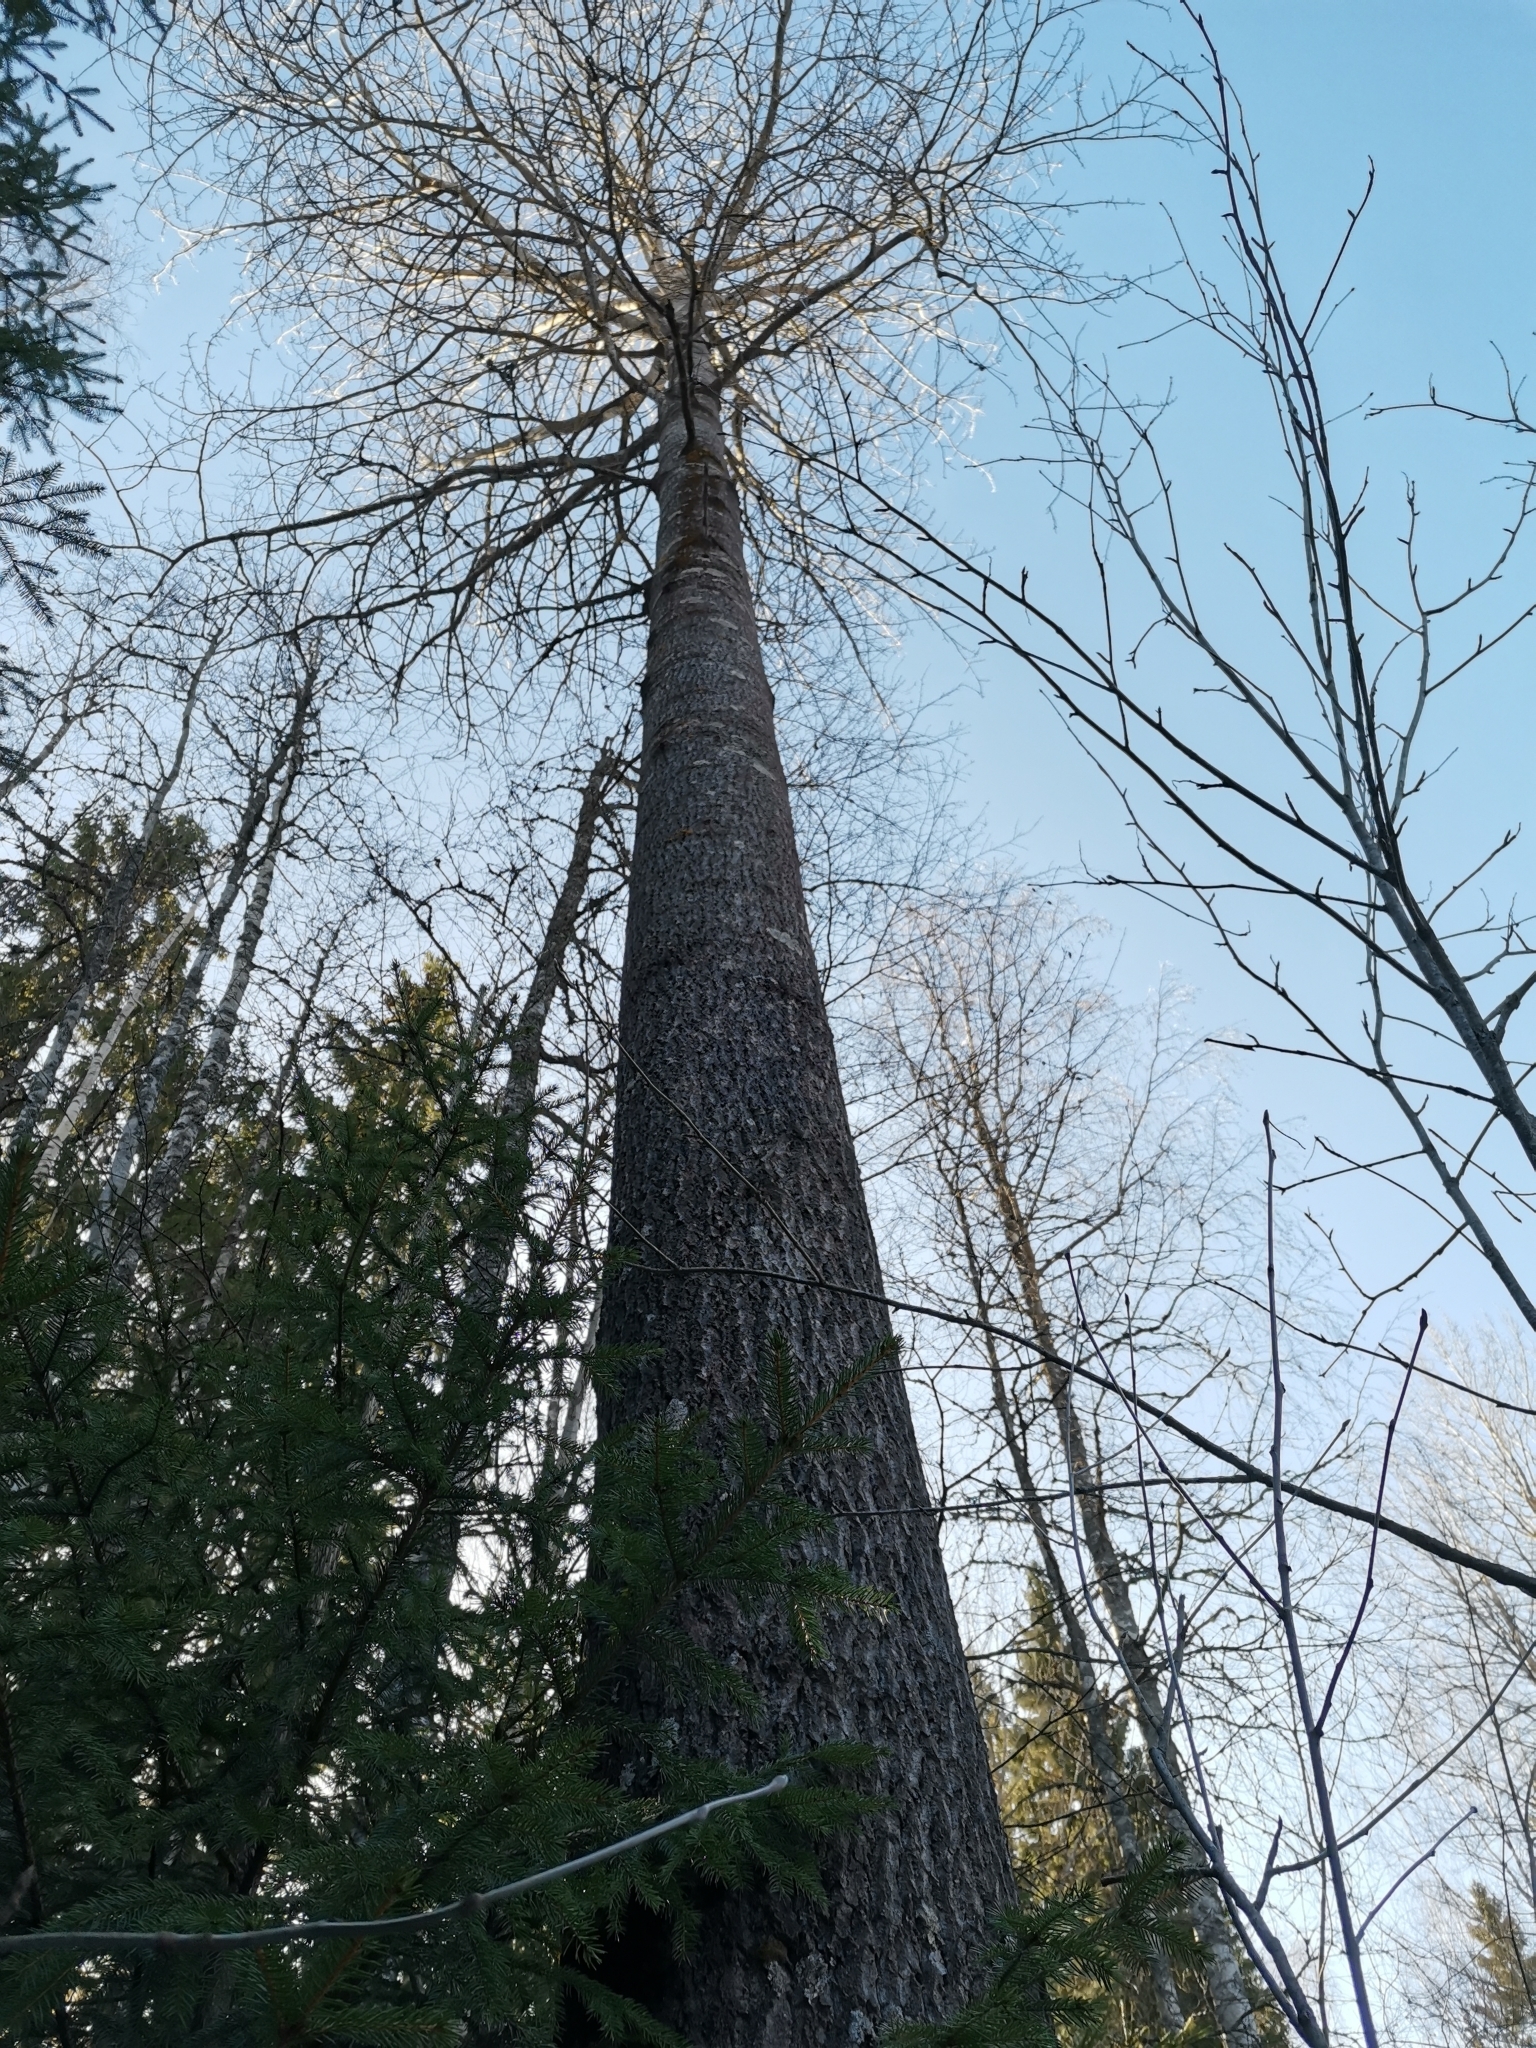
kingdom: Animalia
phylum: Chordata
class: Mammalia
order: Rodentia
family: Sciuridae
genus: Pteromys
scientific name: Pteromys volans
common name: Siberian flying squirrel
